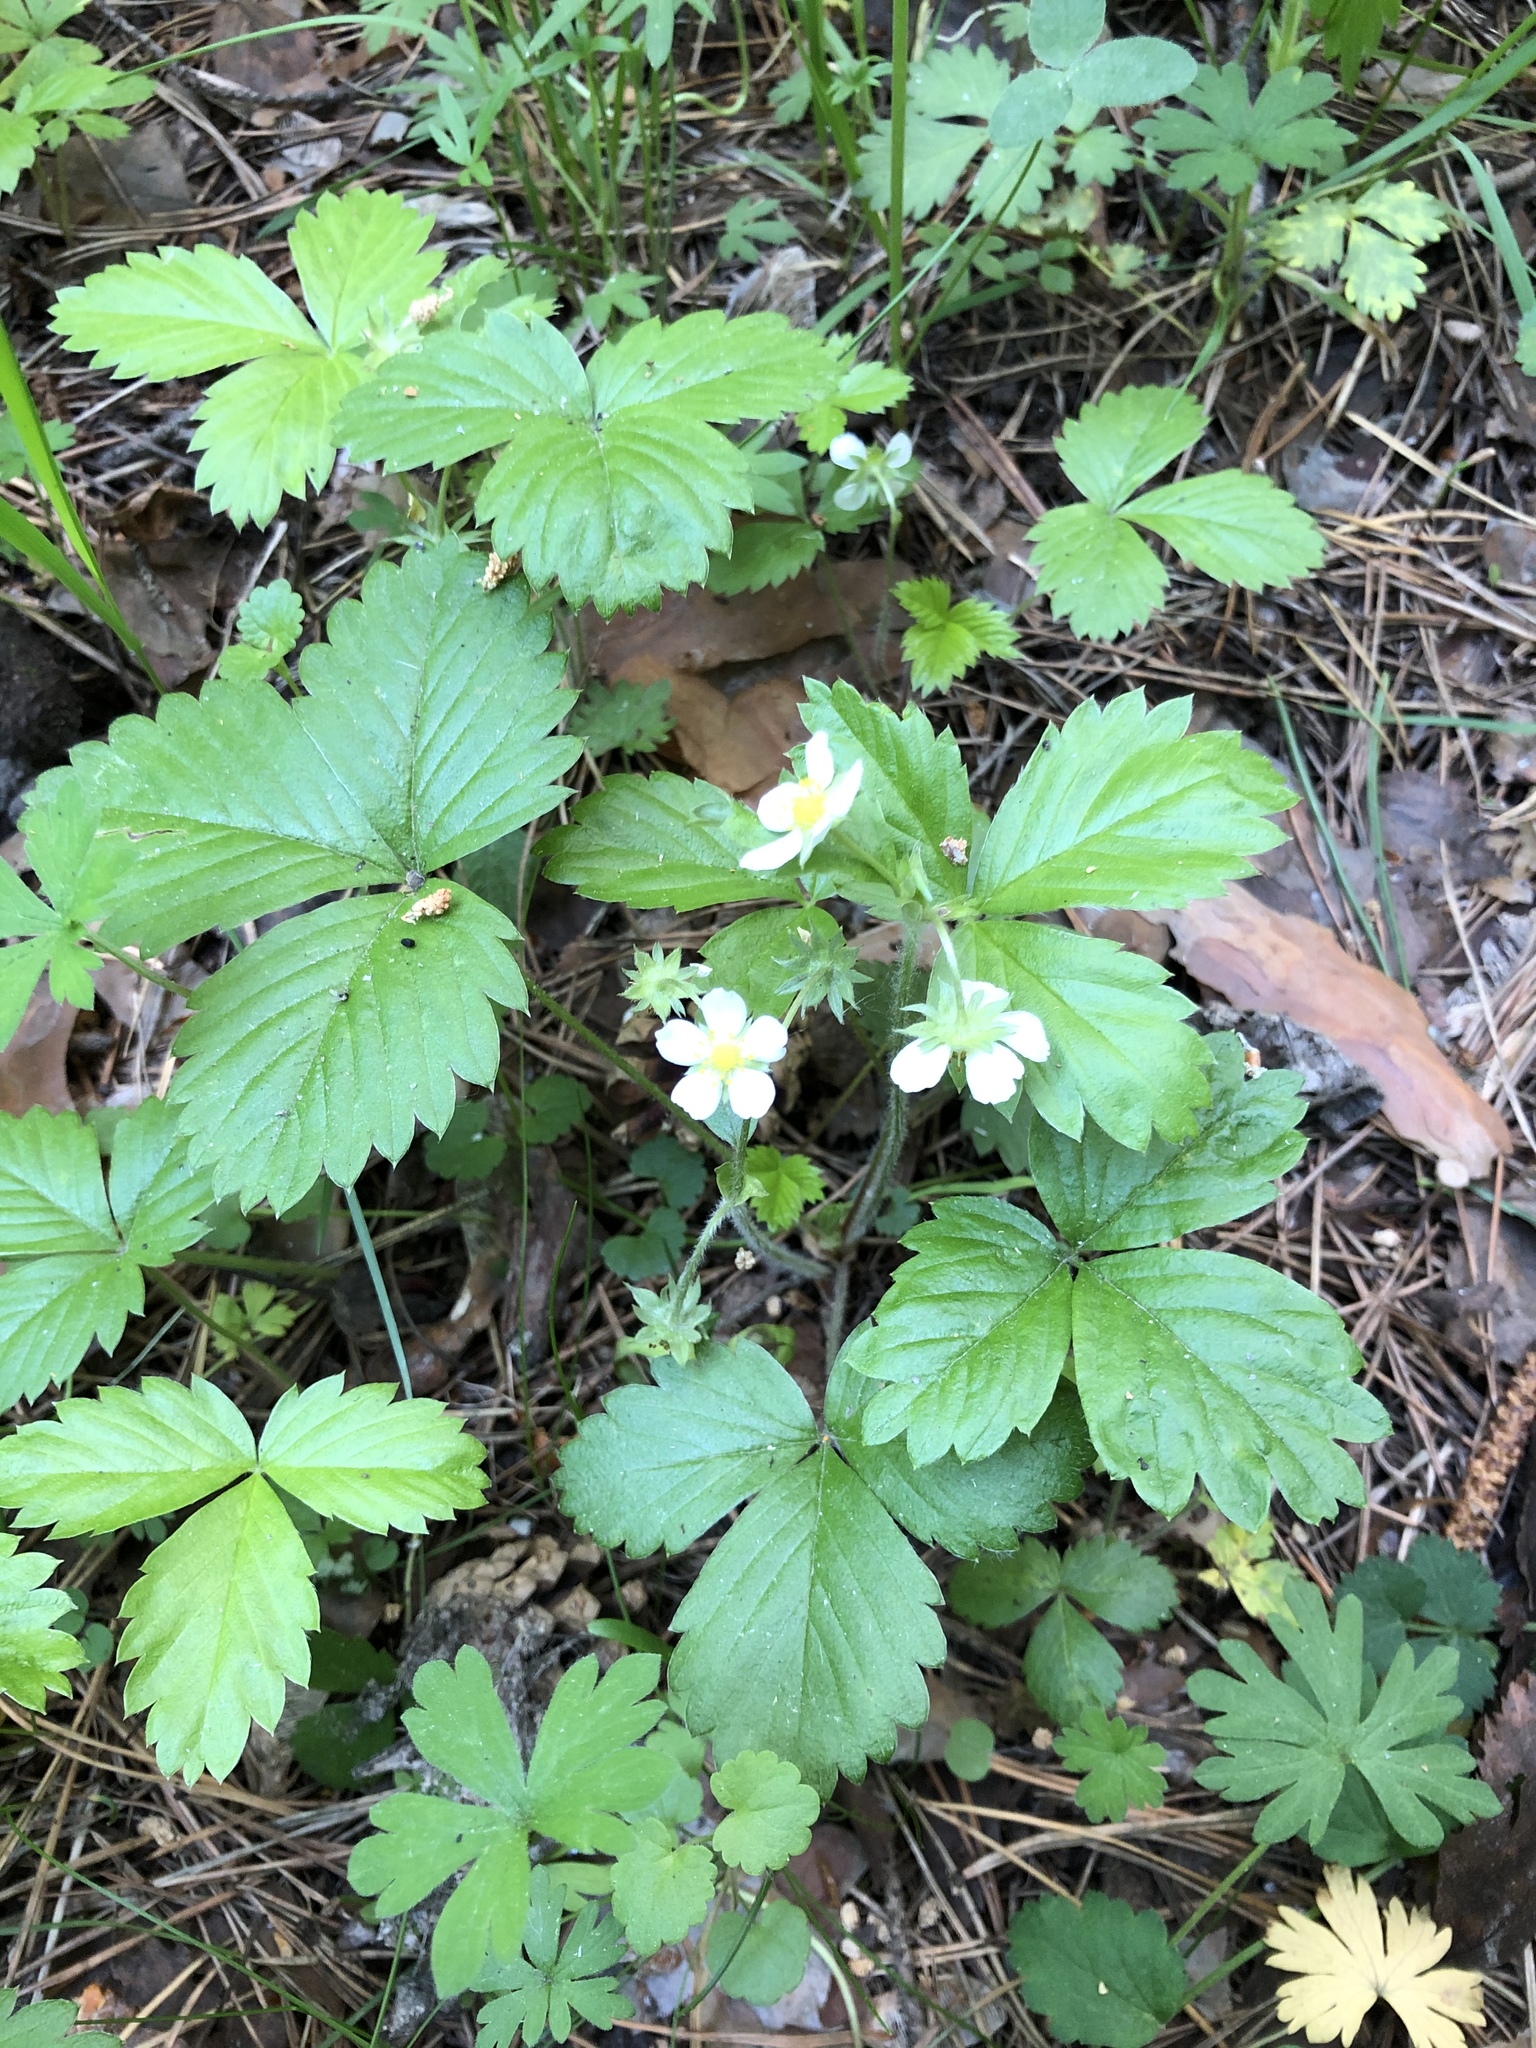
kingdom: Plantae
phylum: Tracheophyta
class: Magnoliopsida
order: Rosales
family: Rosaceae
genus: Fragaria
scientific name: Fragaria vesca
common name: Wild strawberry
